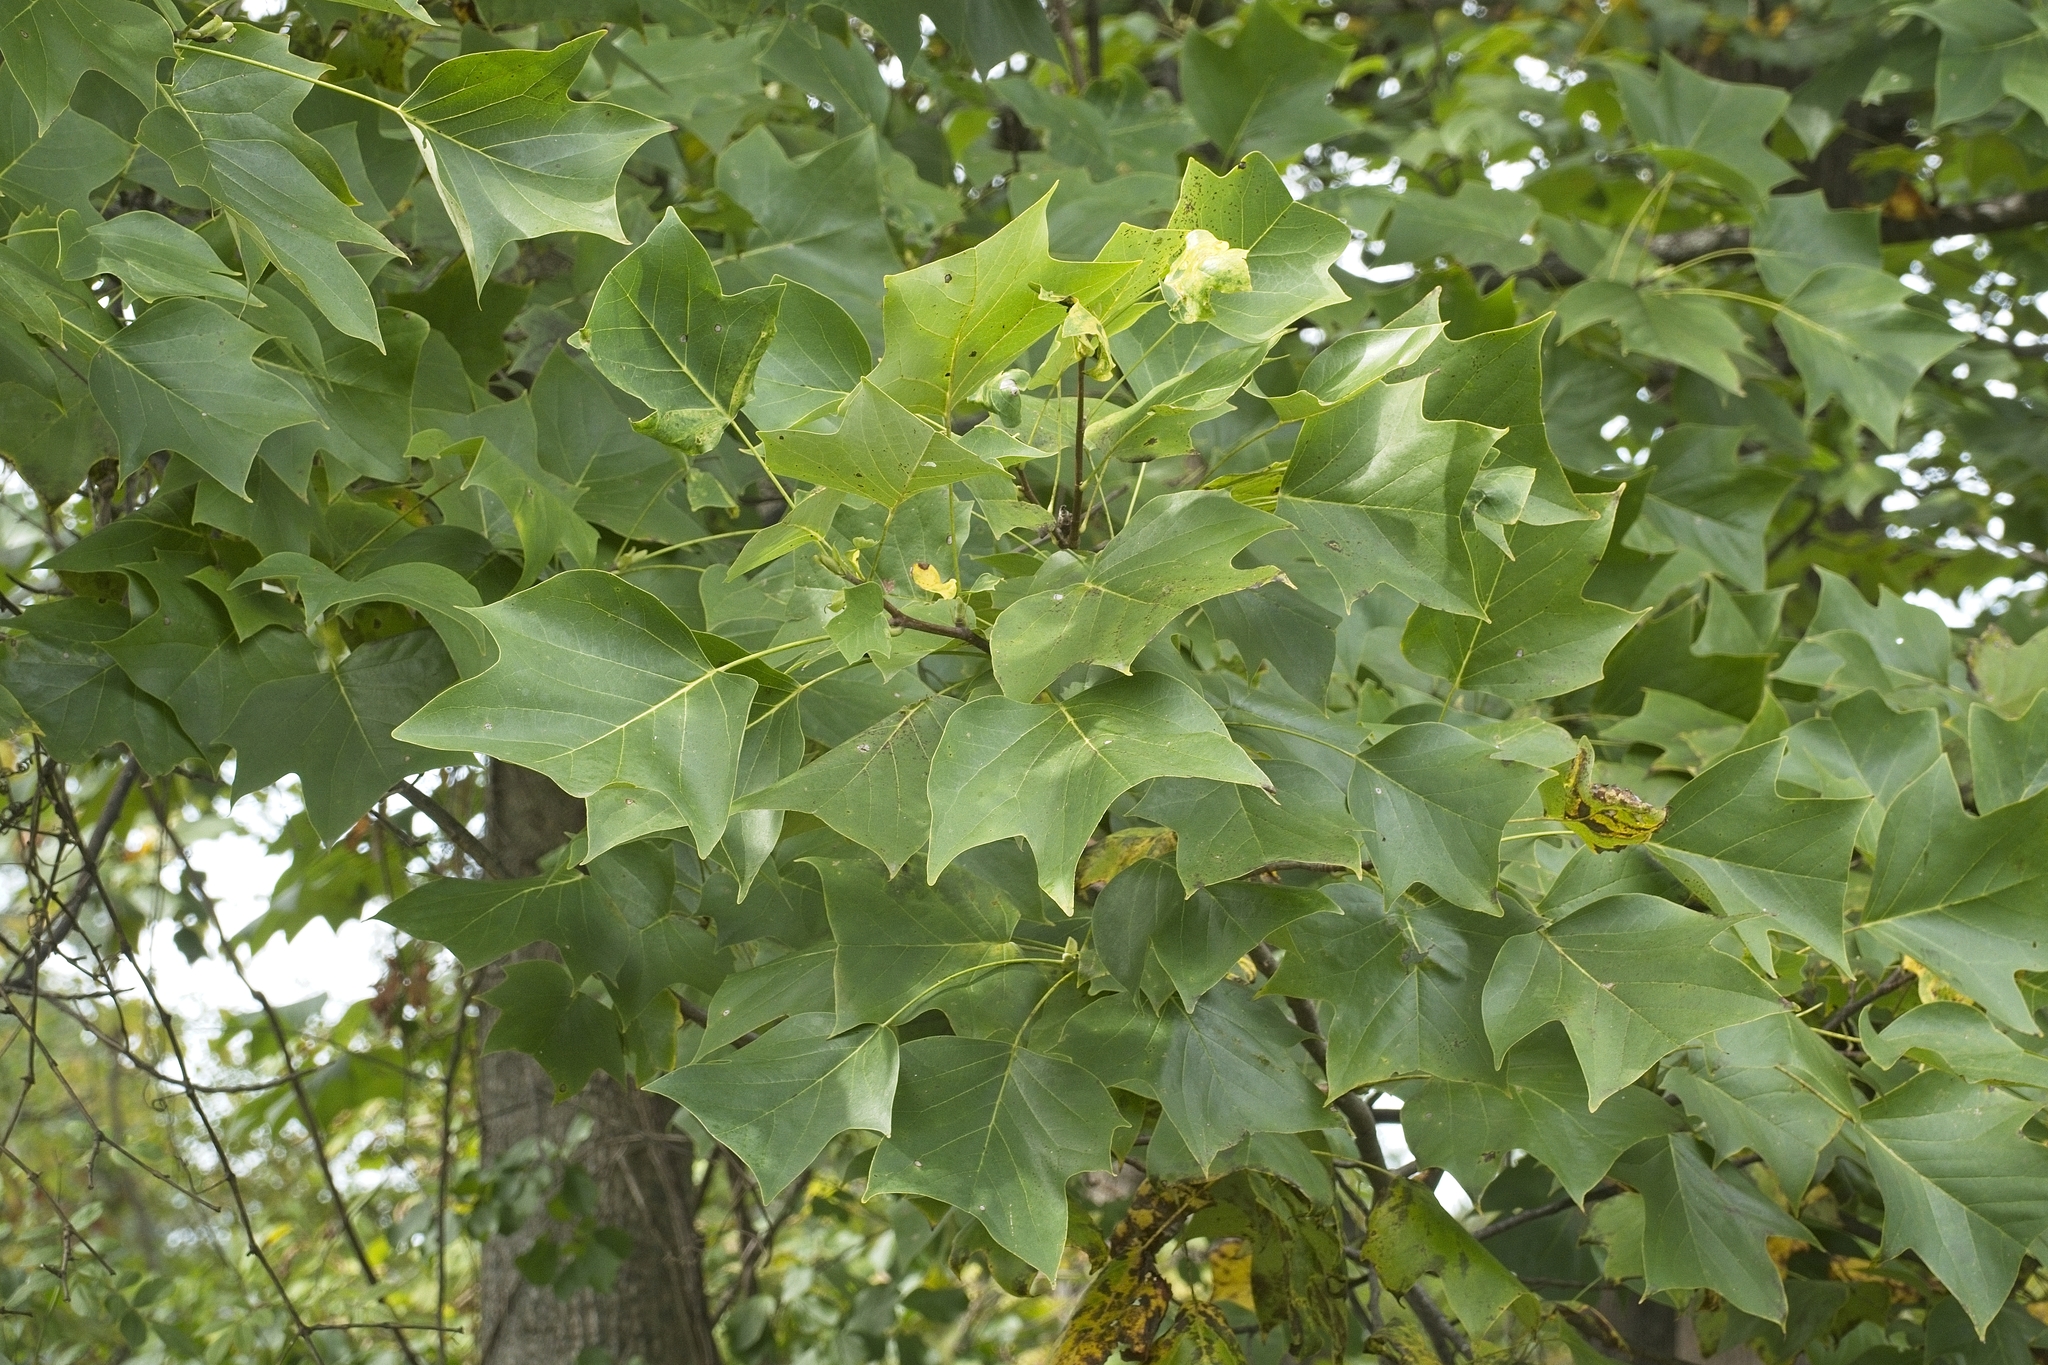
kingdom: Plantae
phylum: Tracheophyta
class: Magnoliopsida
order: Magnoliales
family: Magnoliaceae
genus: Liriodendron
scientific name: Liriodendron tulipifera
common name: Tulip tree
